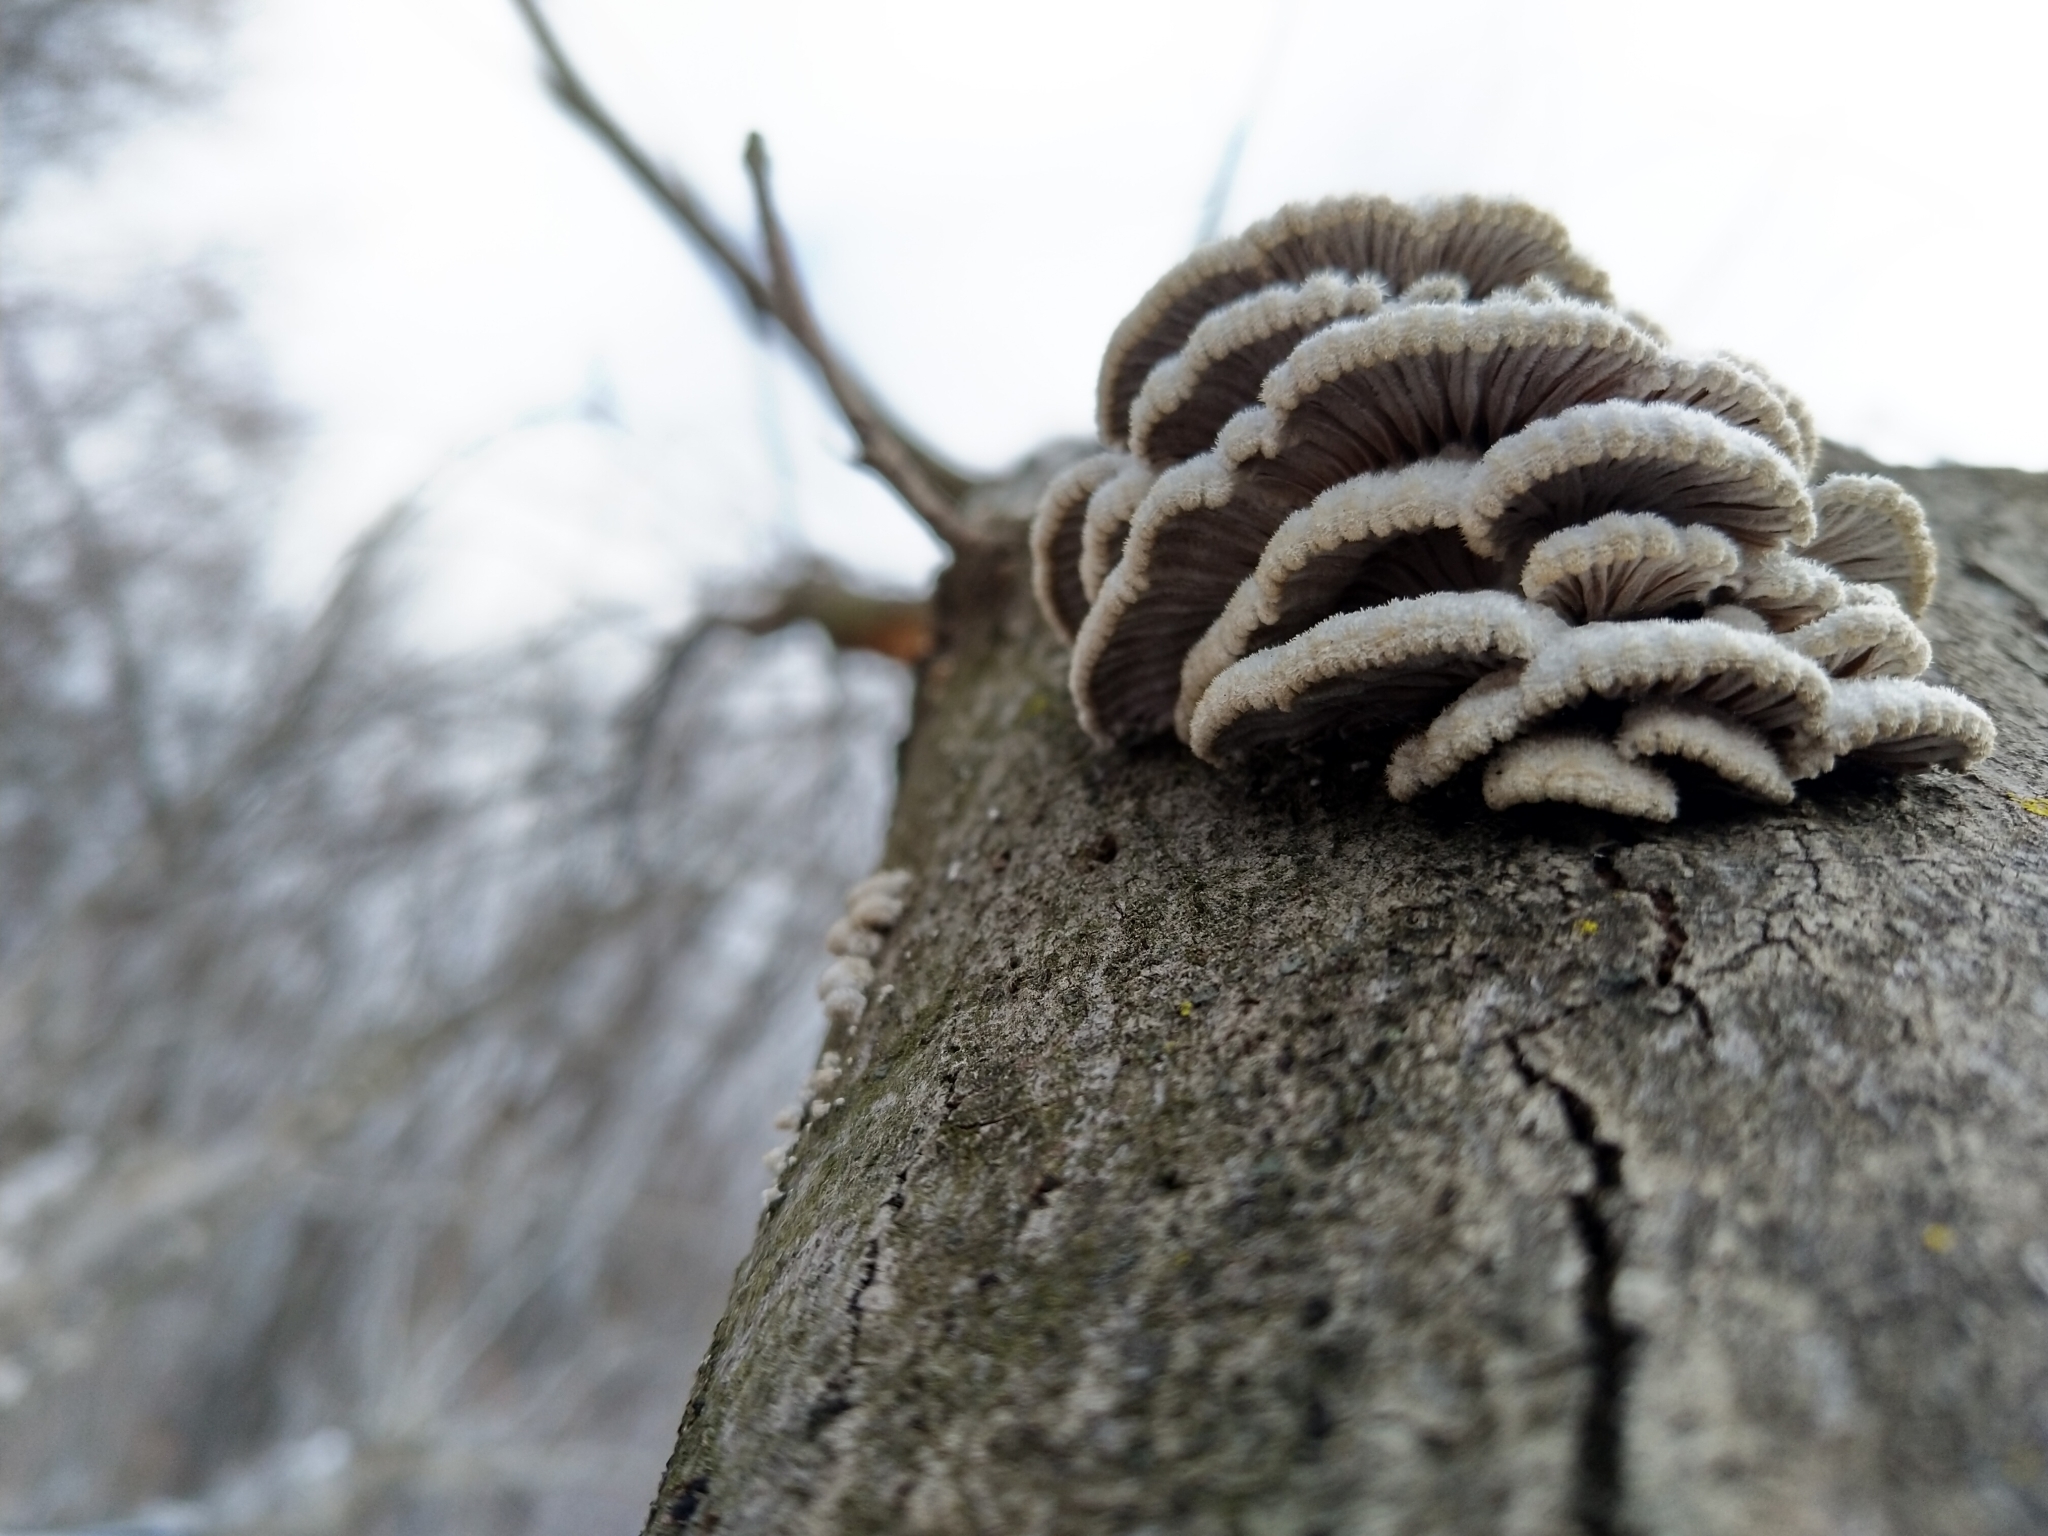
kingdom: Fungi
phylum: Basidiomycota
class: Agaricomycetes
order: Agaricales
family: Schizophyllaceae
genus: Schizophyllum
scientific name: Schizophyllum commune
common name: Common porecrust
